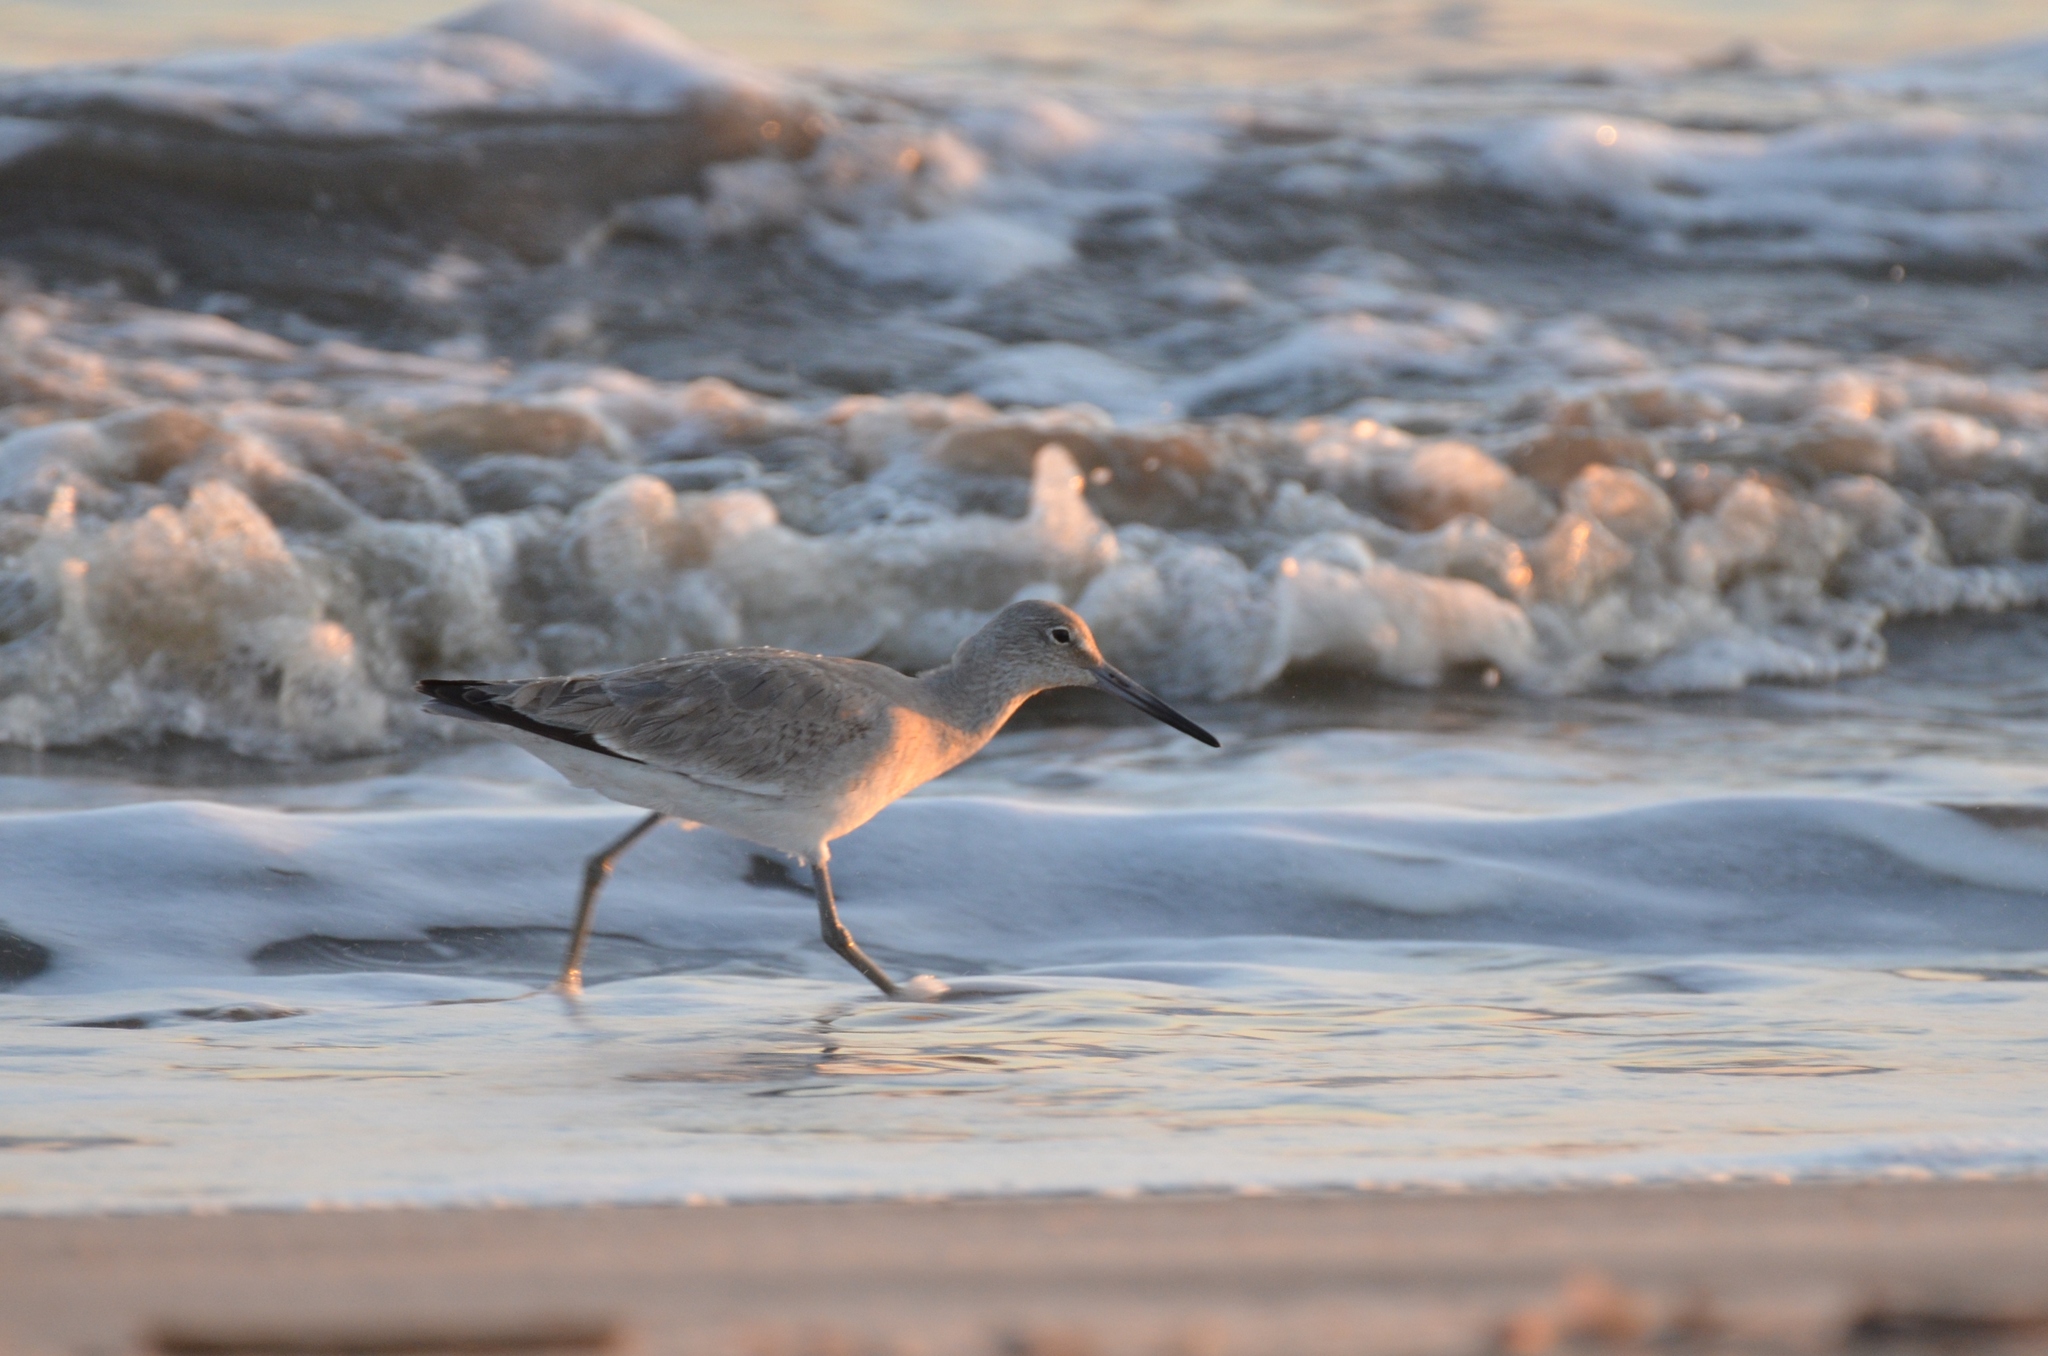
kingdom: Animalia
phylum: Chordata
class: Aves
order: Charadriiformes
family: Scolopacidae
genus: Tringa
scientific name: Tringa semipalmata
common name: Willet
